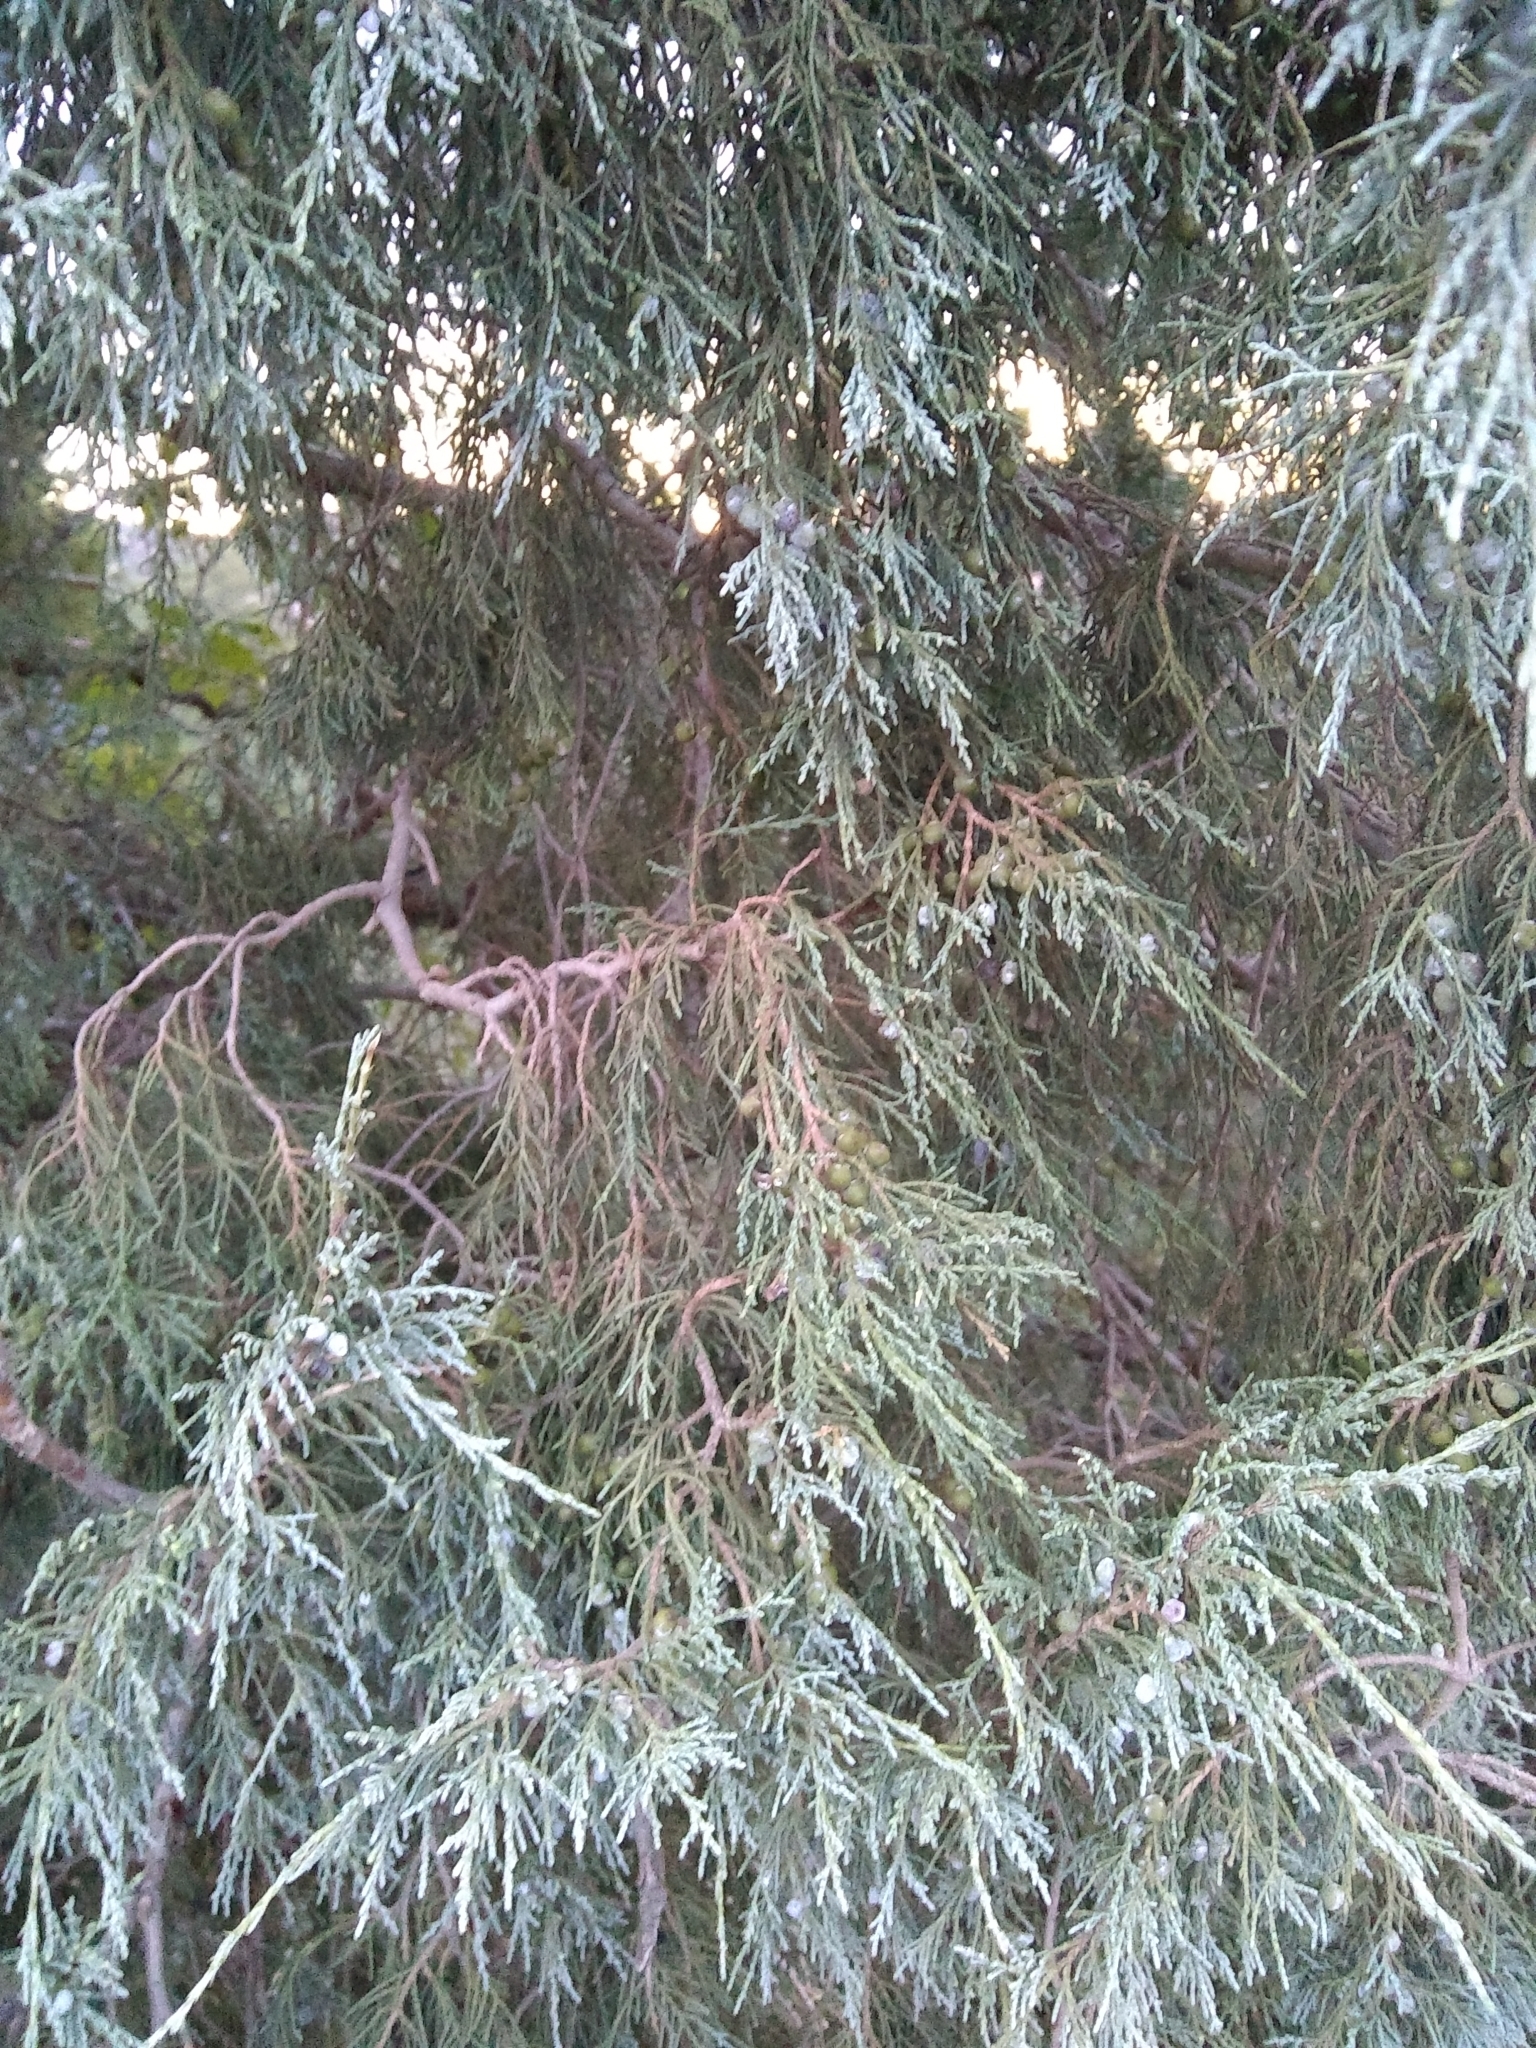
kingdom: Plantae
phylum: Tracheophyta
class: Pinopsida
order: Pinales
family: Cupressaceae
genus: Juniperus
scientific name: Juniperus scopulorum
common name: Rocky mountain juniper
